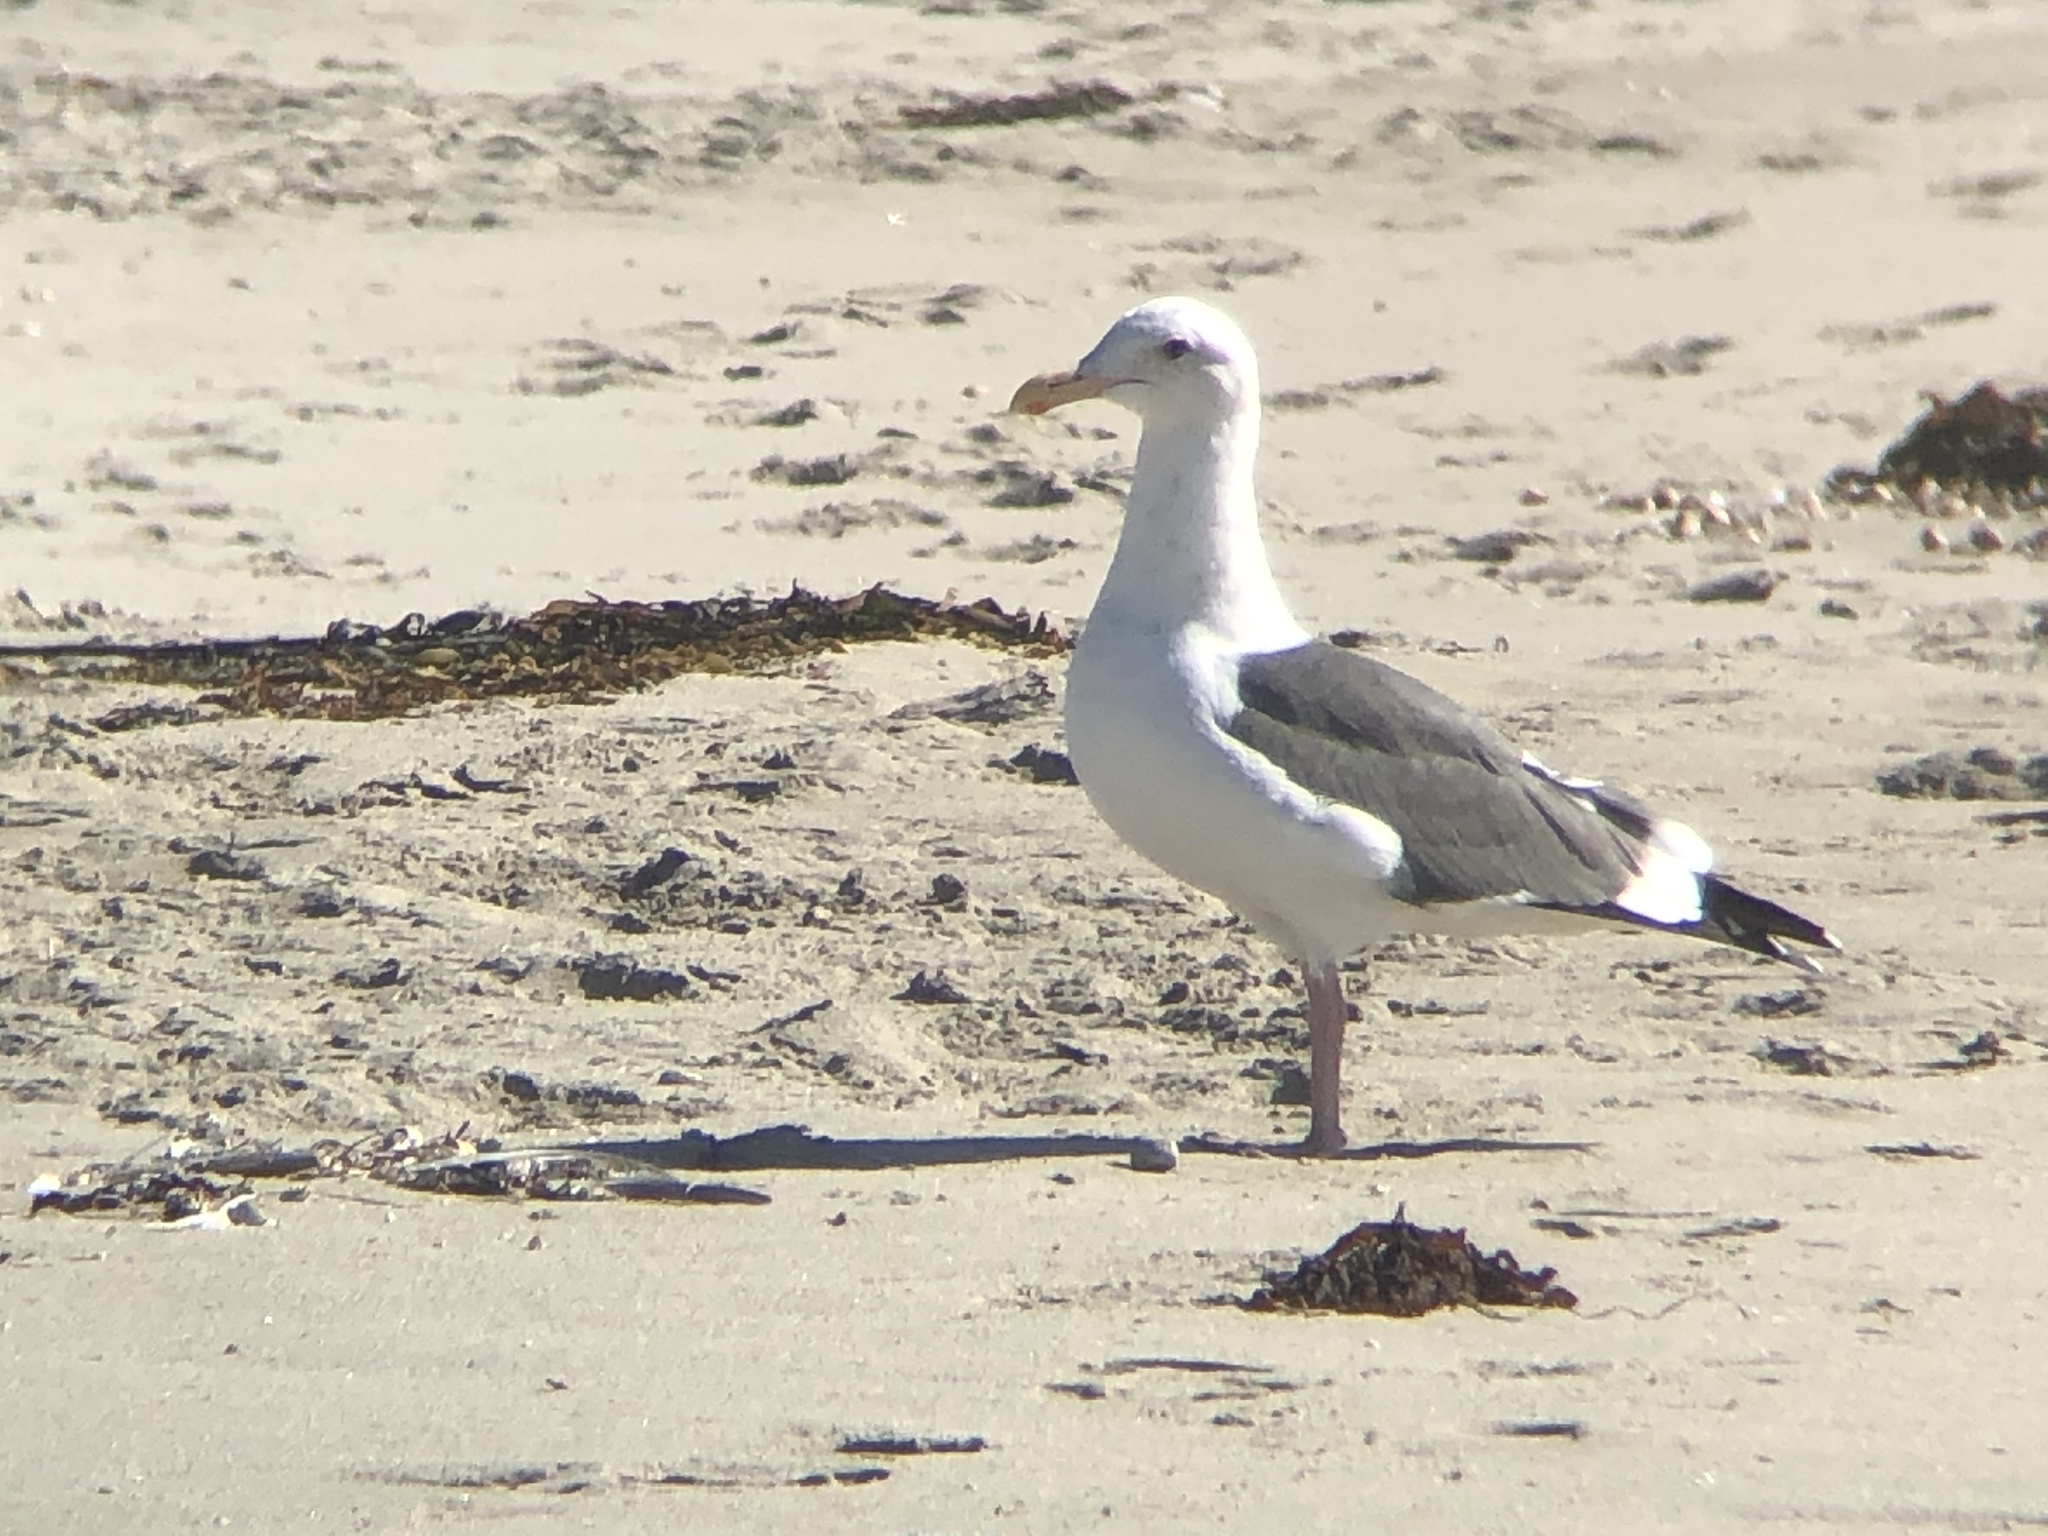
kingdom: Animalia
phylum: Chordata
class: Aves
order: Charadriiformes
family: Laridae
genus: Larus
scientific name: Larus occidentalis
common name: Western gull
